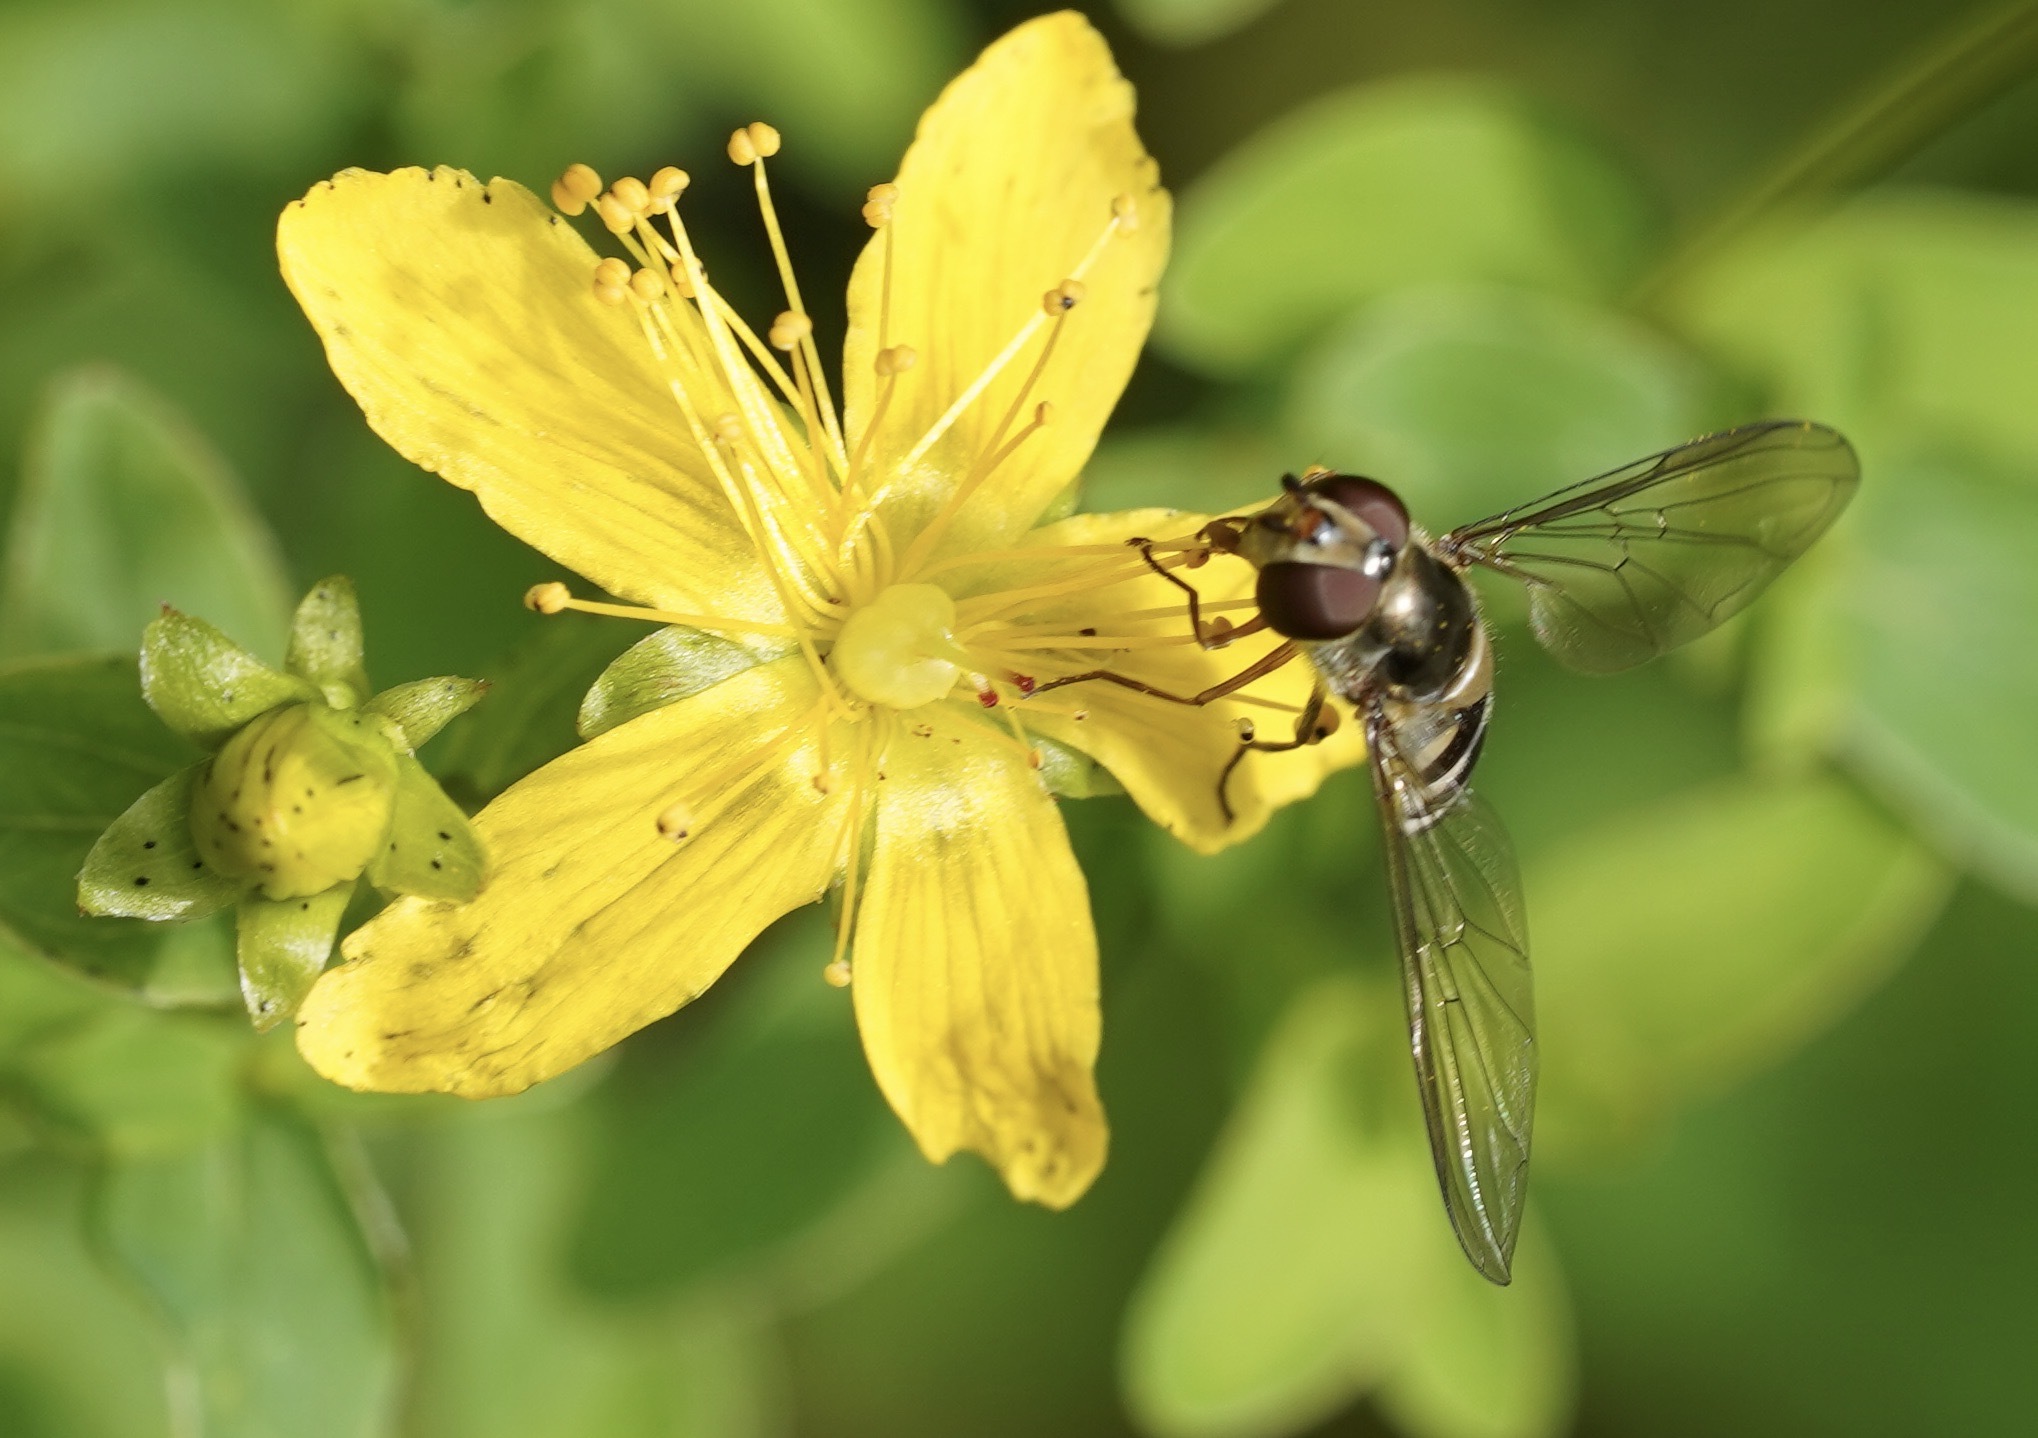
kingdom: Animalia
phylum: Arthropoda
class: Insecta
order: Diptera
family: Syrphidae
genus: Meliscaeva
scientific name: Meliscaeva auricollis
